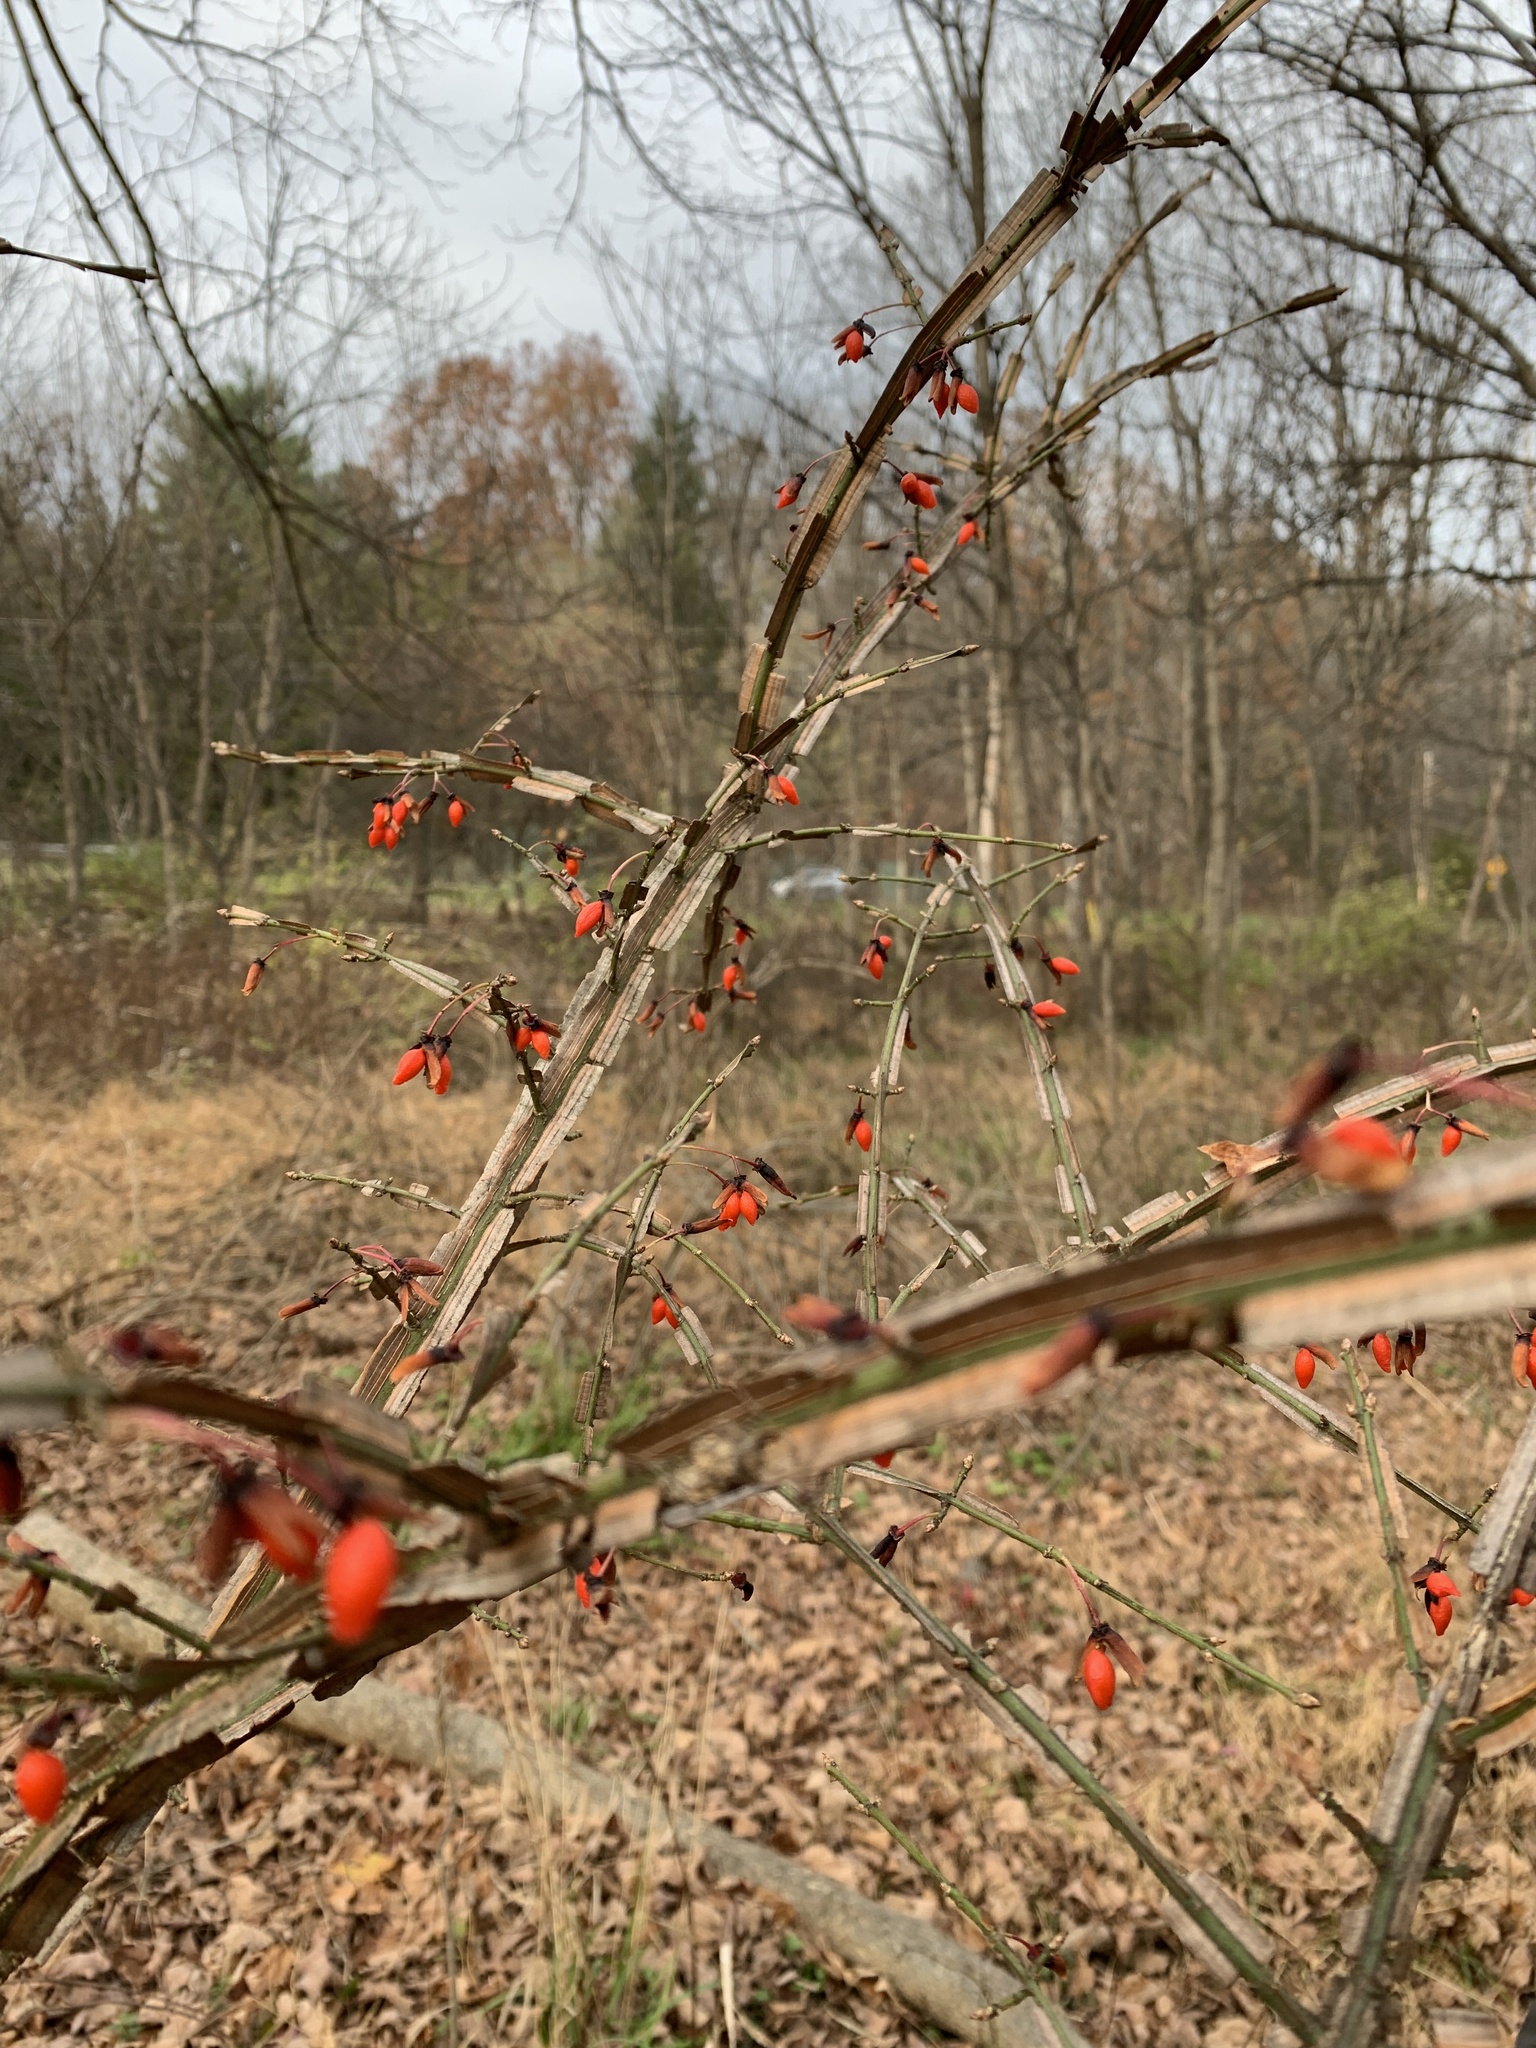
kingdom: Plantae
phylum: Tracheophyta
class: Magnoliopsida
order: Celastrales
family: Celastraceae
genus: Euonymus
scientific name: Euonymus alatus
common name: Winged euonymus
